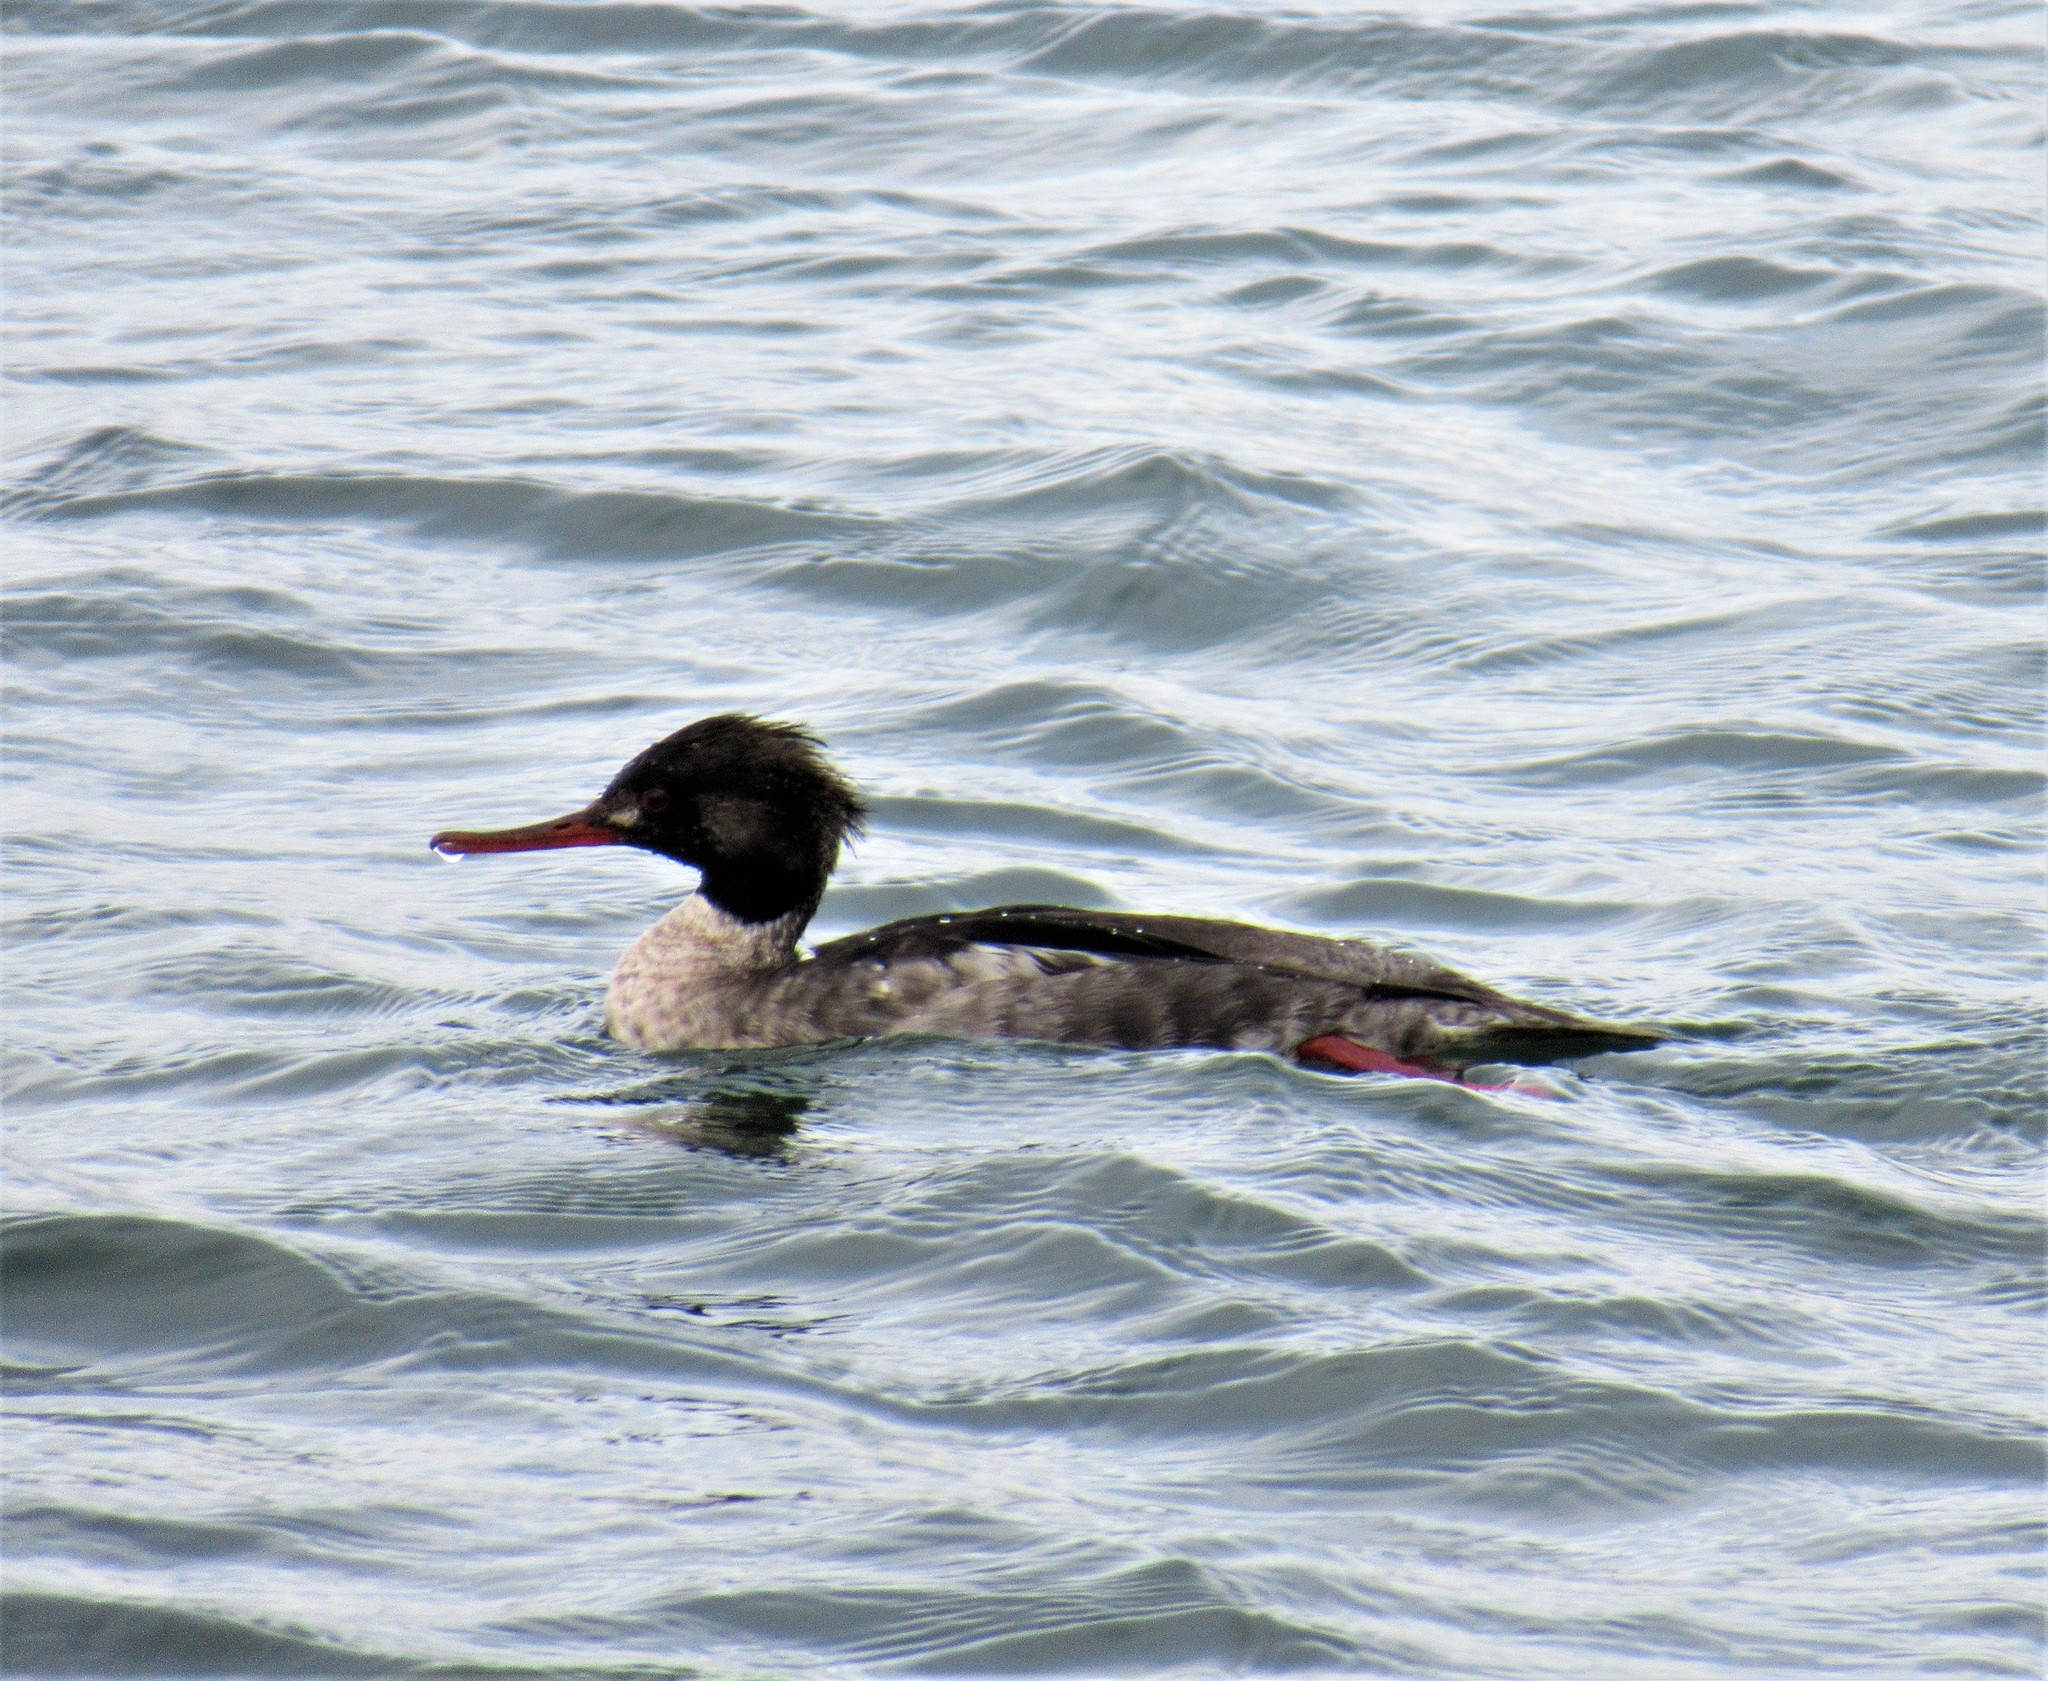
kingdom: Animalia
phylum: Chordata
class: Aves
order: Anseriformes
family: Anatidae
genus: Mergus
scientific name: Mergus serrator
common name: Red-breasted merganser
